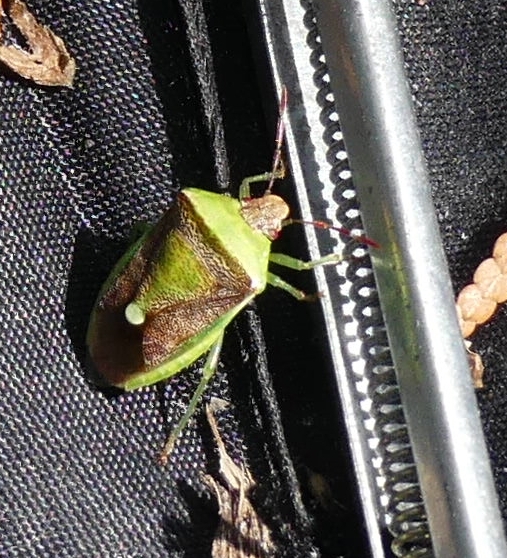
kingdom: Animalia
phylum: Arthropoda
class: Insecta
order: Hemiptera
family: Pentatomidae
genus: Banasa
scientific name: Banasa dimidiata
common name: Green burgundy stink bug
